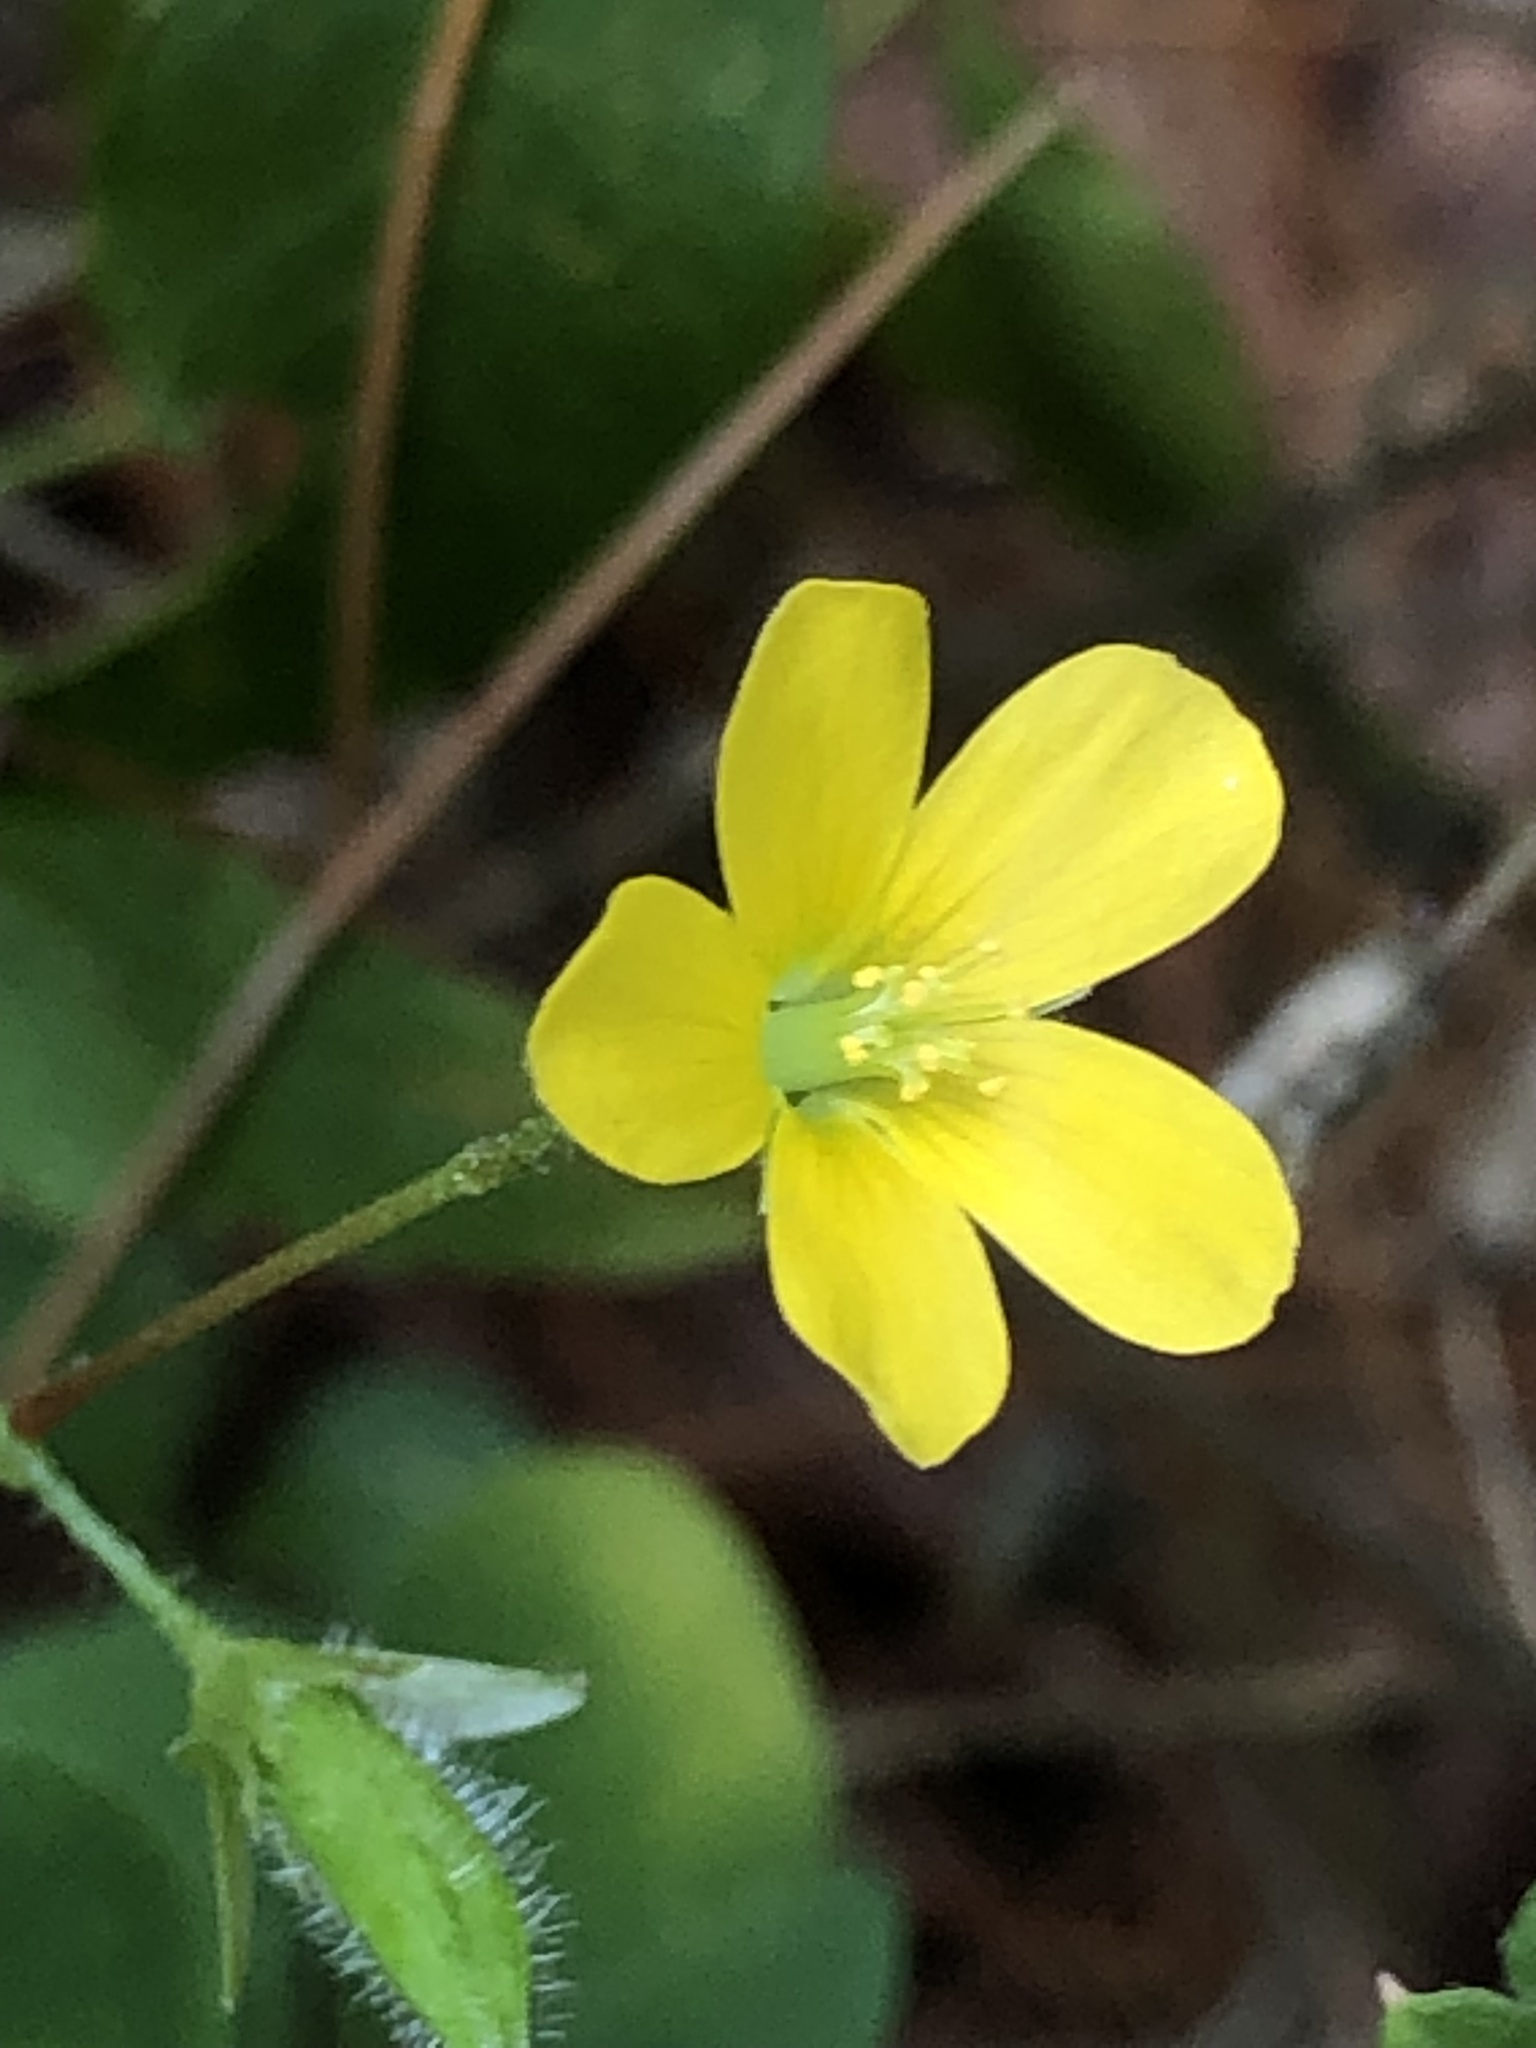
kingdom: Plantae
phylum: Tracheophyta
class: Magnoliopsida
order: Oxalidales
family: Oxalidaceae
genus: Oxalis
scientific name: Oxalis stricta
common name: Upright yellow-sorrel
